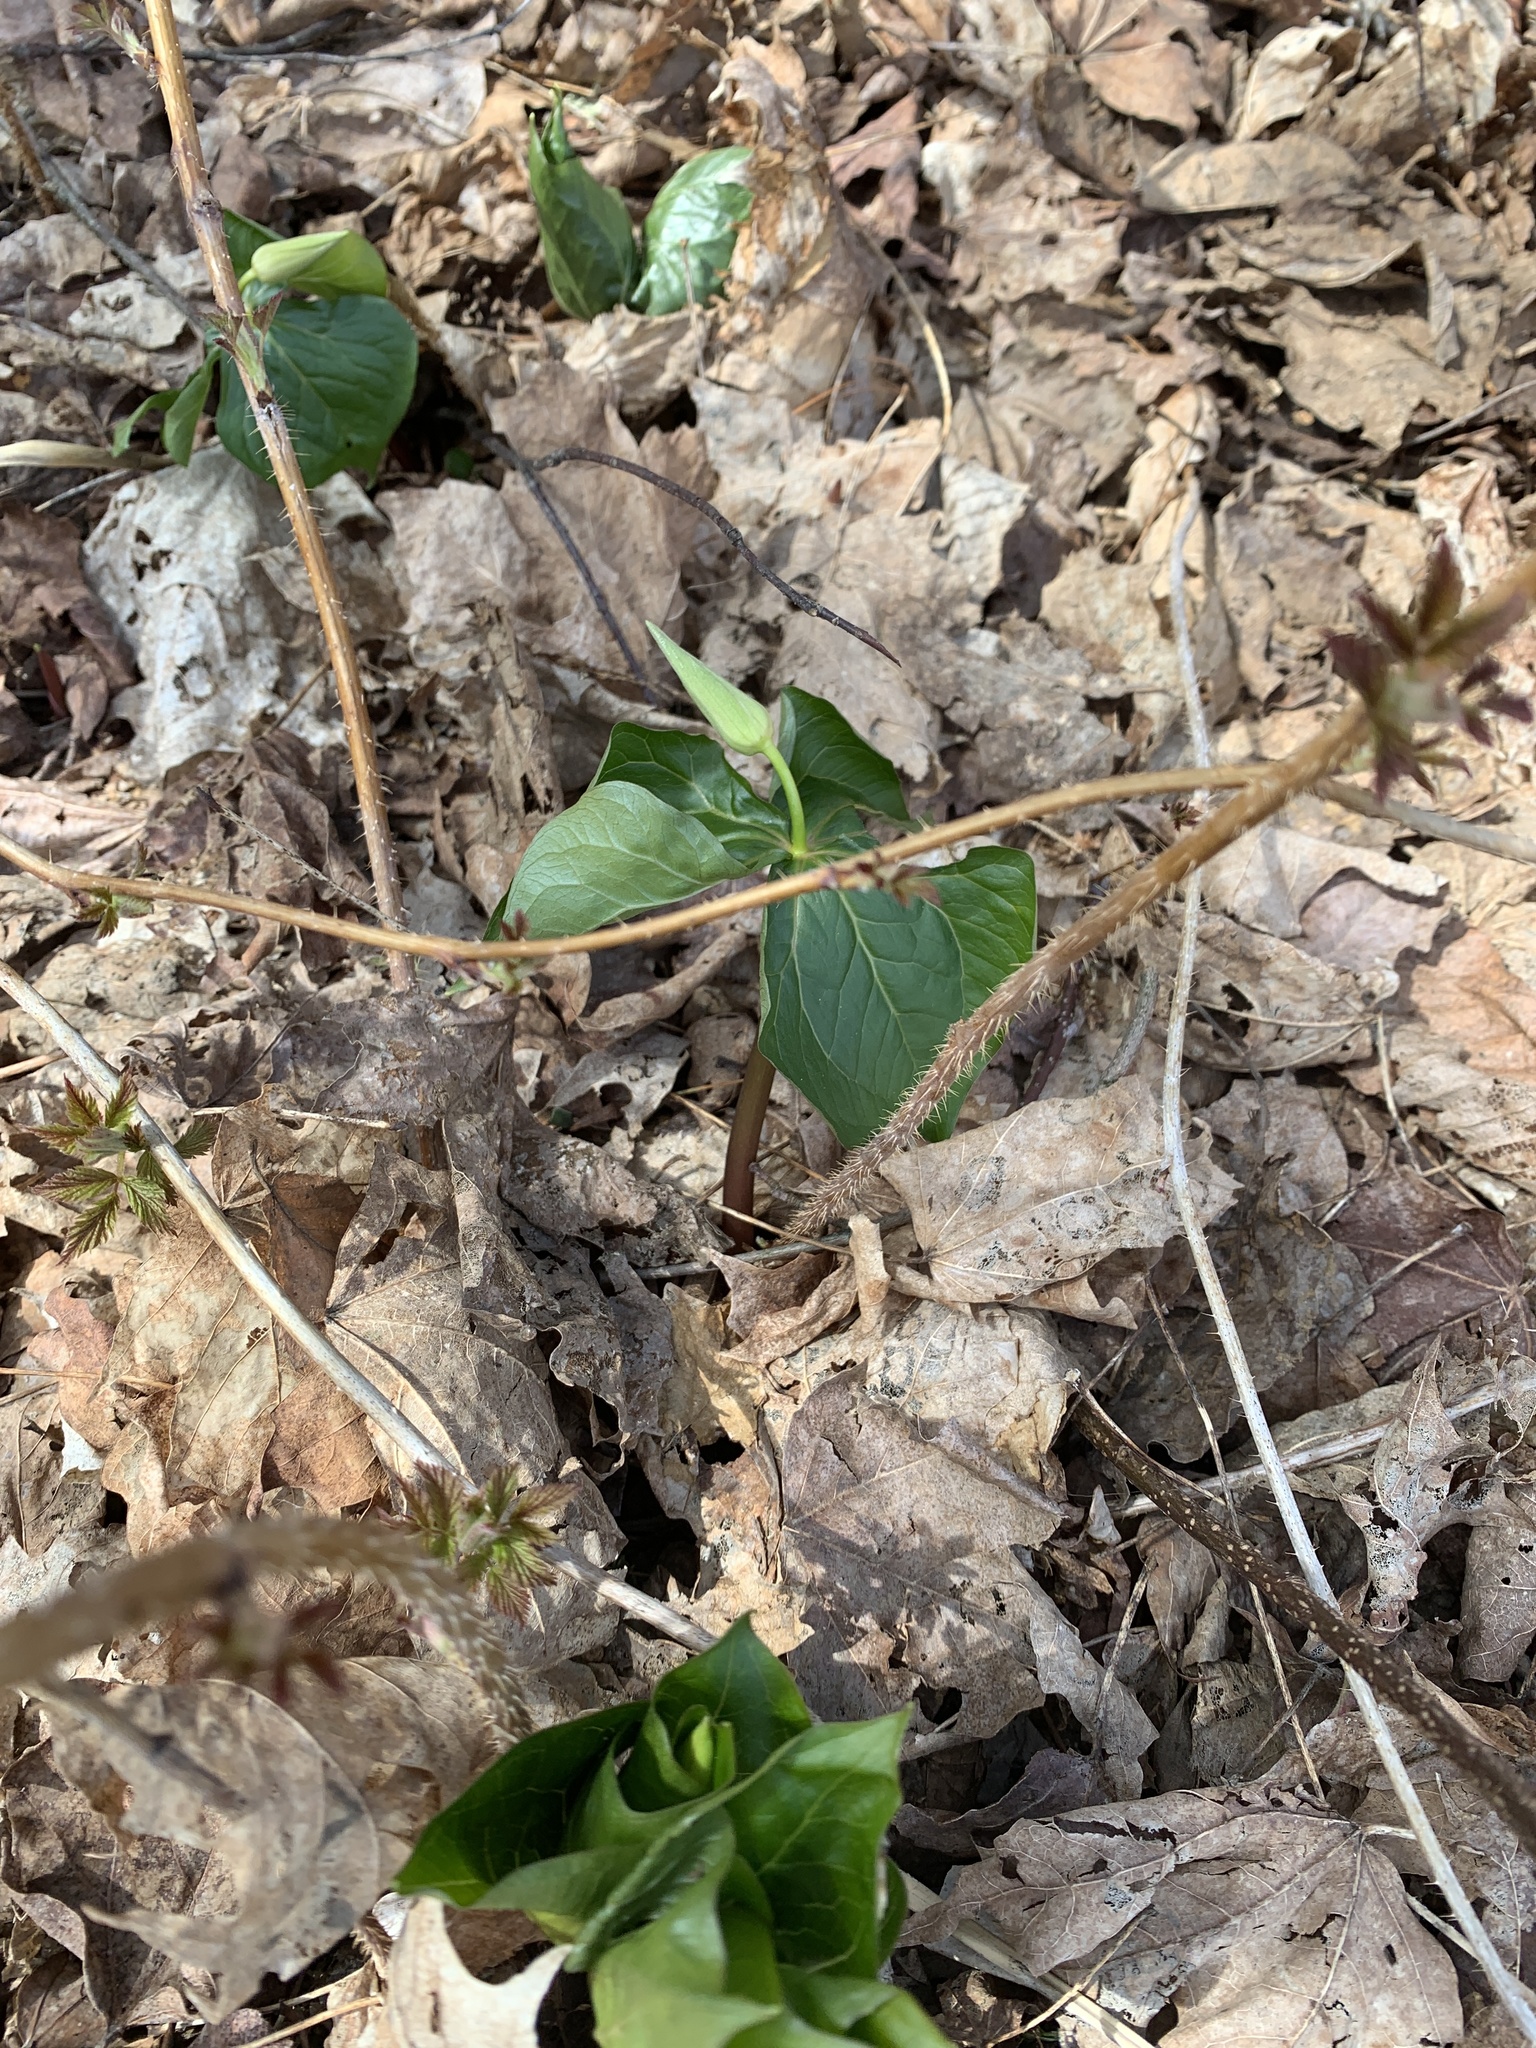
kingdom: Plantae
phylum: Tracheophyta
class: Liliopsida
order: Liliales
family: Melanthiaceae
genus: Trillium
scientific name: Trillium erectum
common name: Purple trillium
